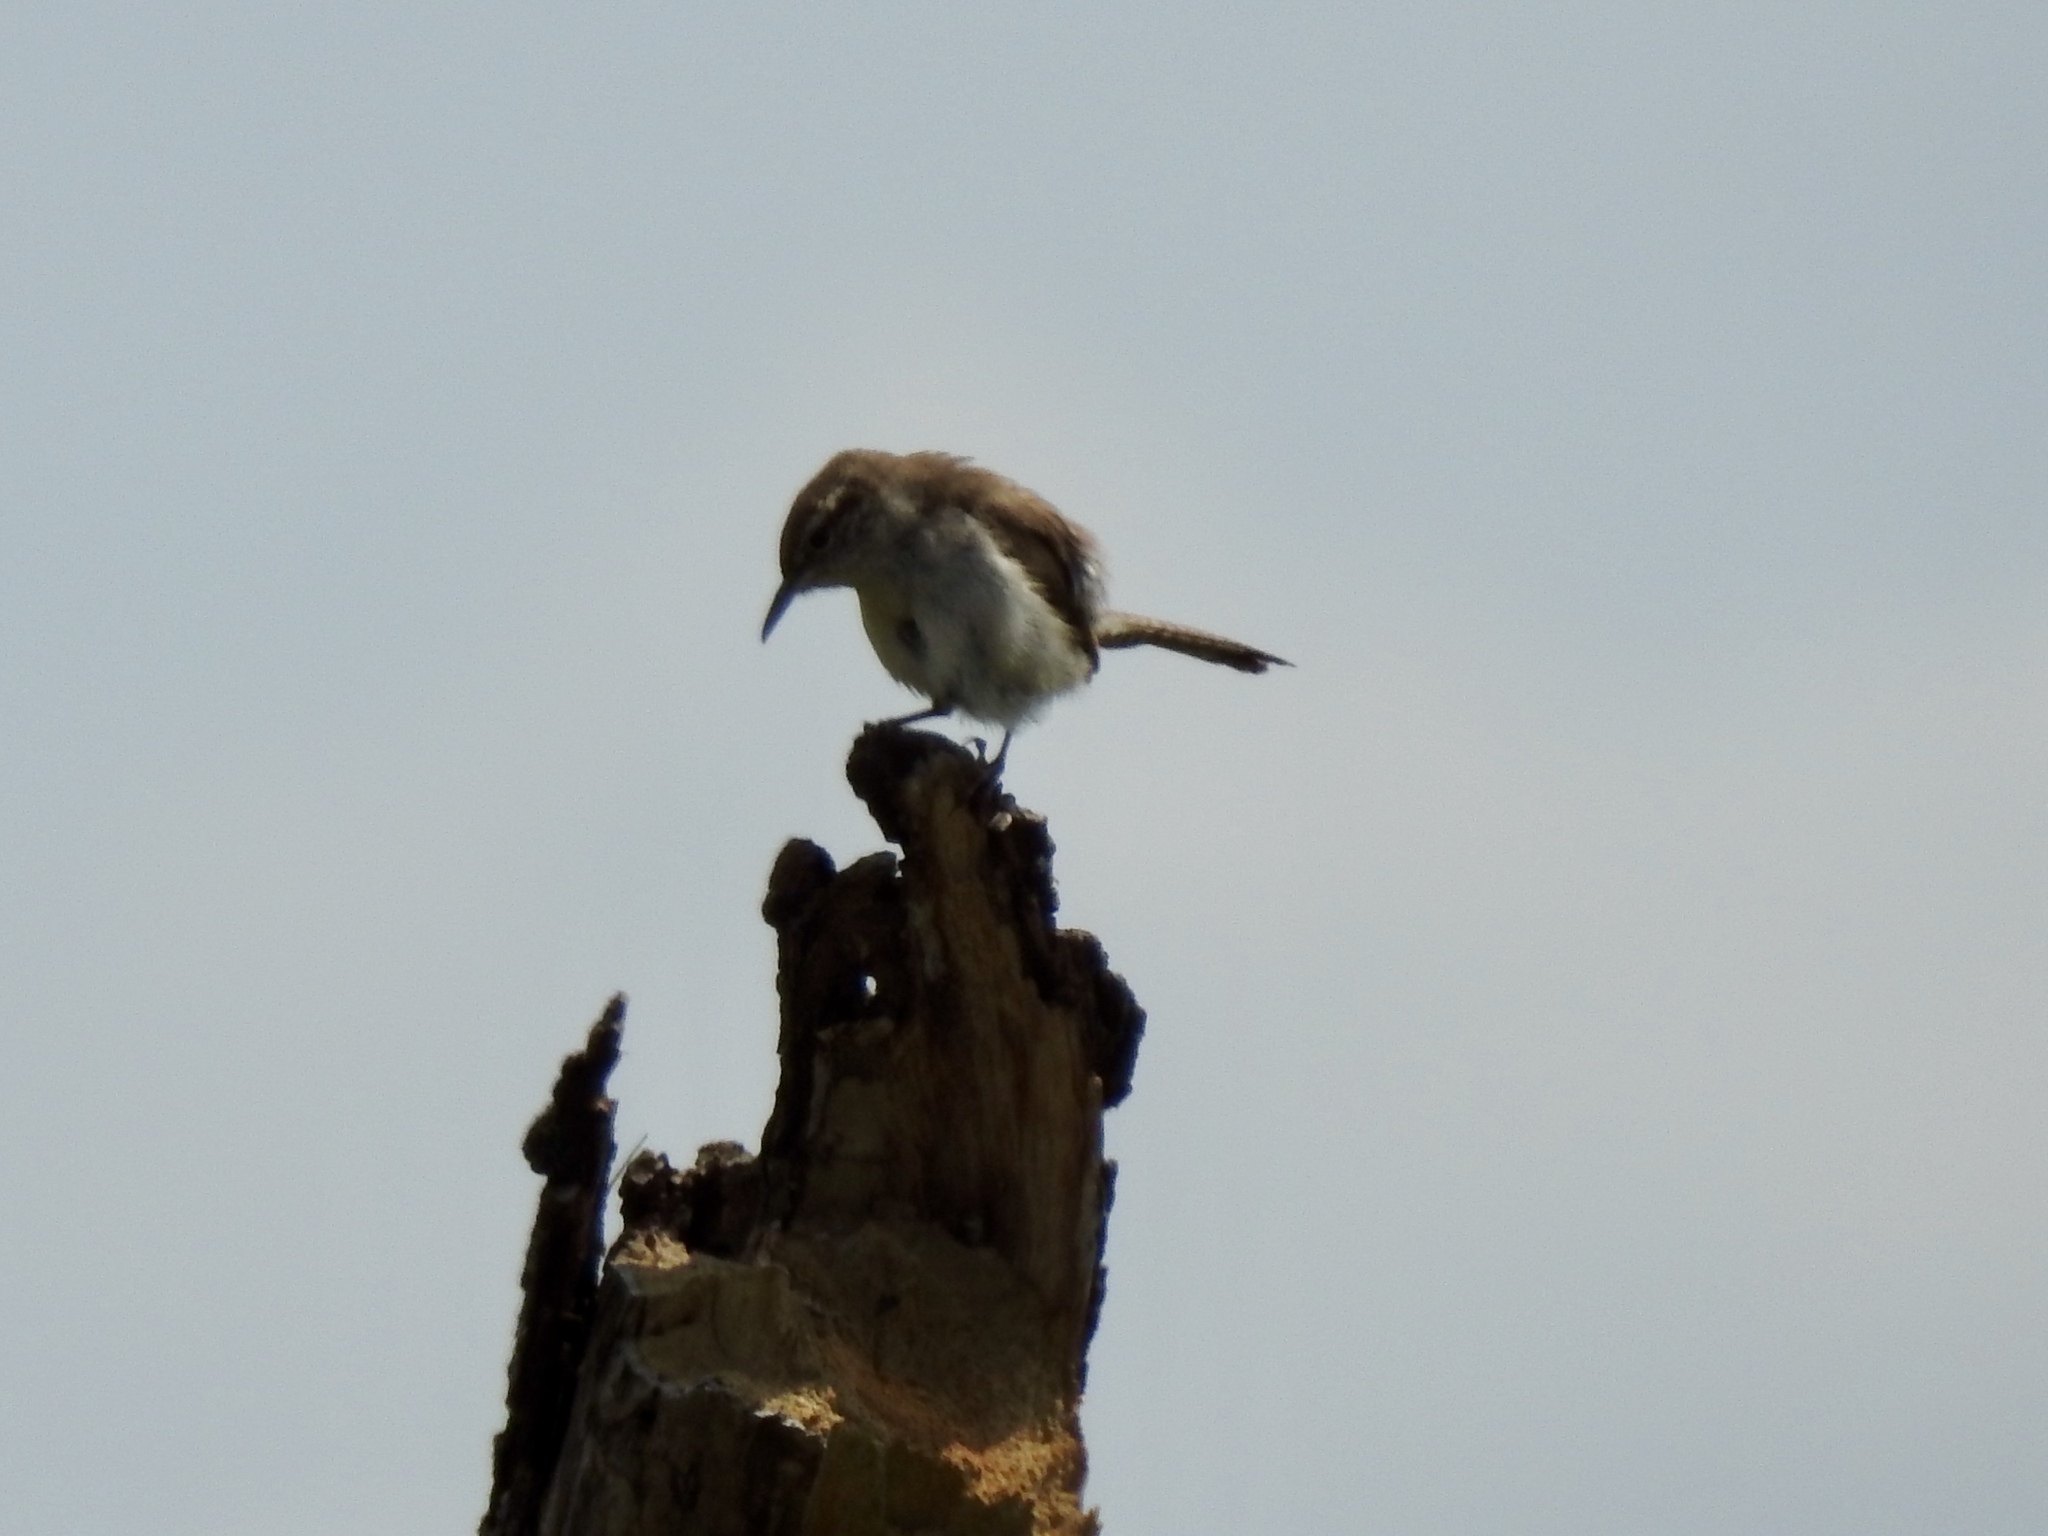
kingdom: Animalia
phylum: Chordata
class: Aves
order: Passeriformes
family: Troglodytidae
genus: Thryomanes
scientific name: Thryomanes bewickii
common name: Bewick's wren
